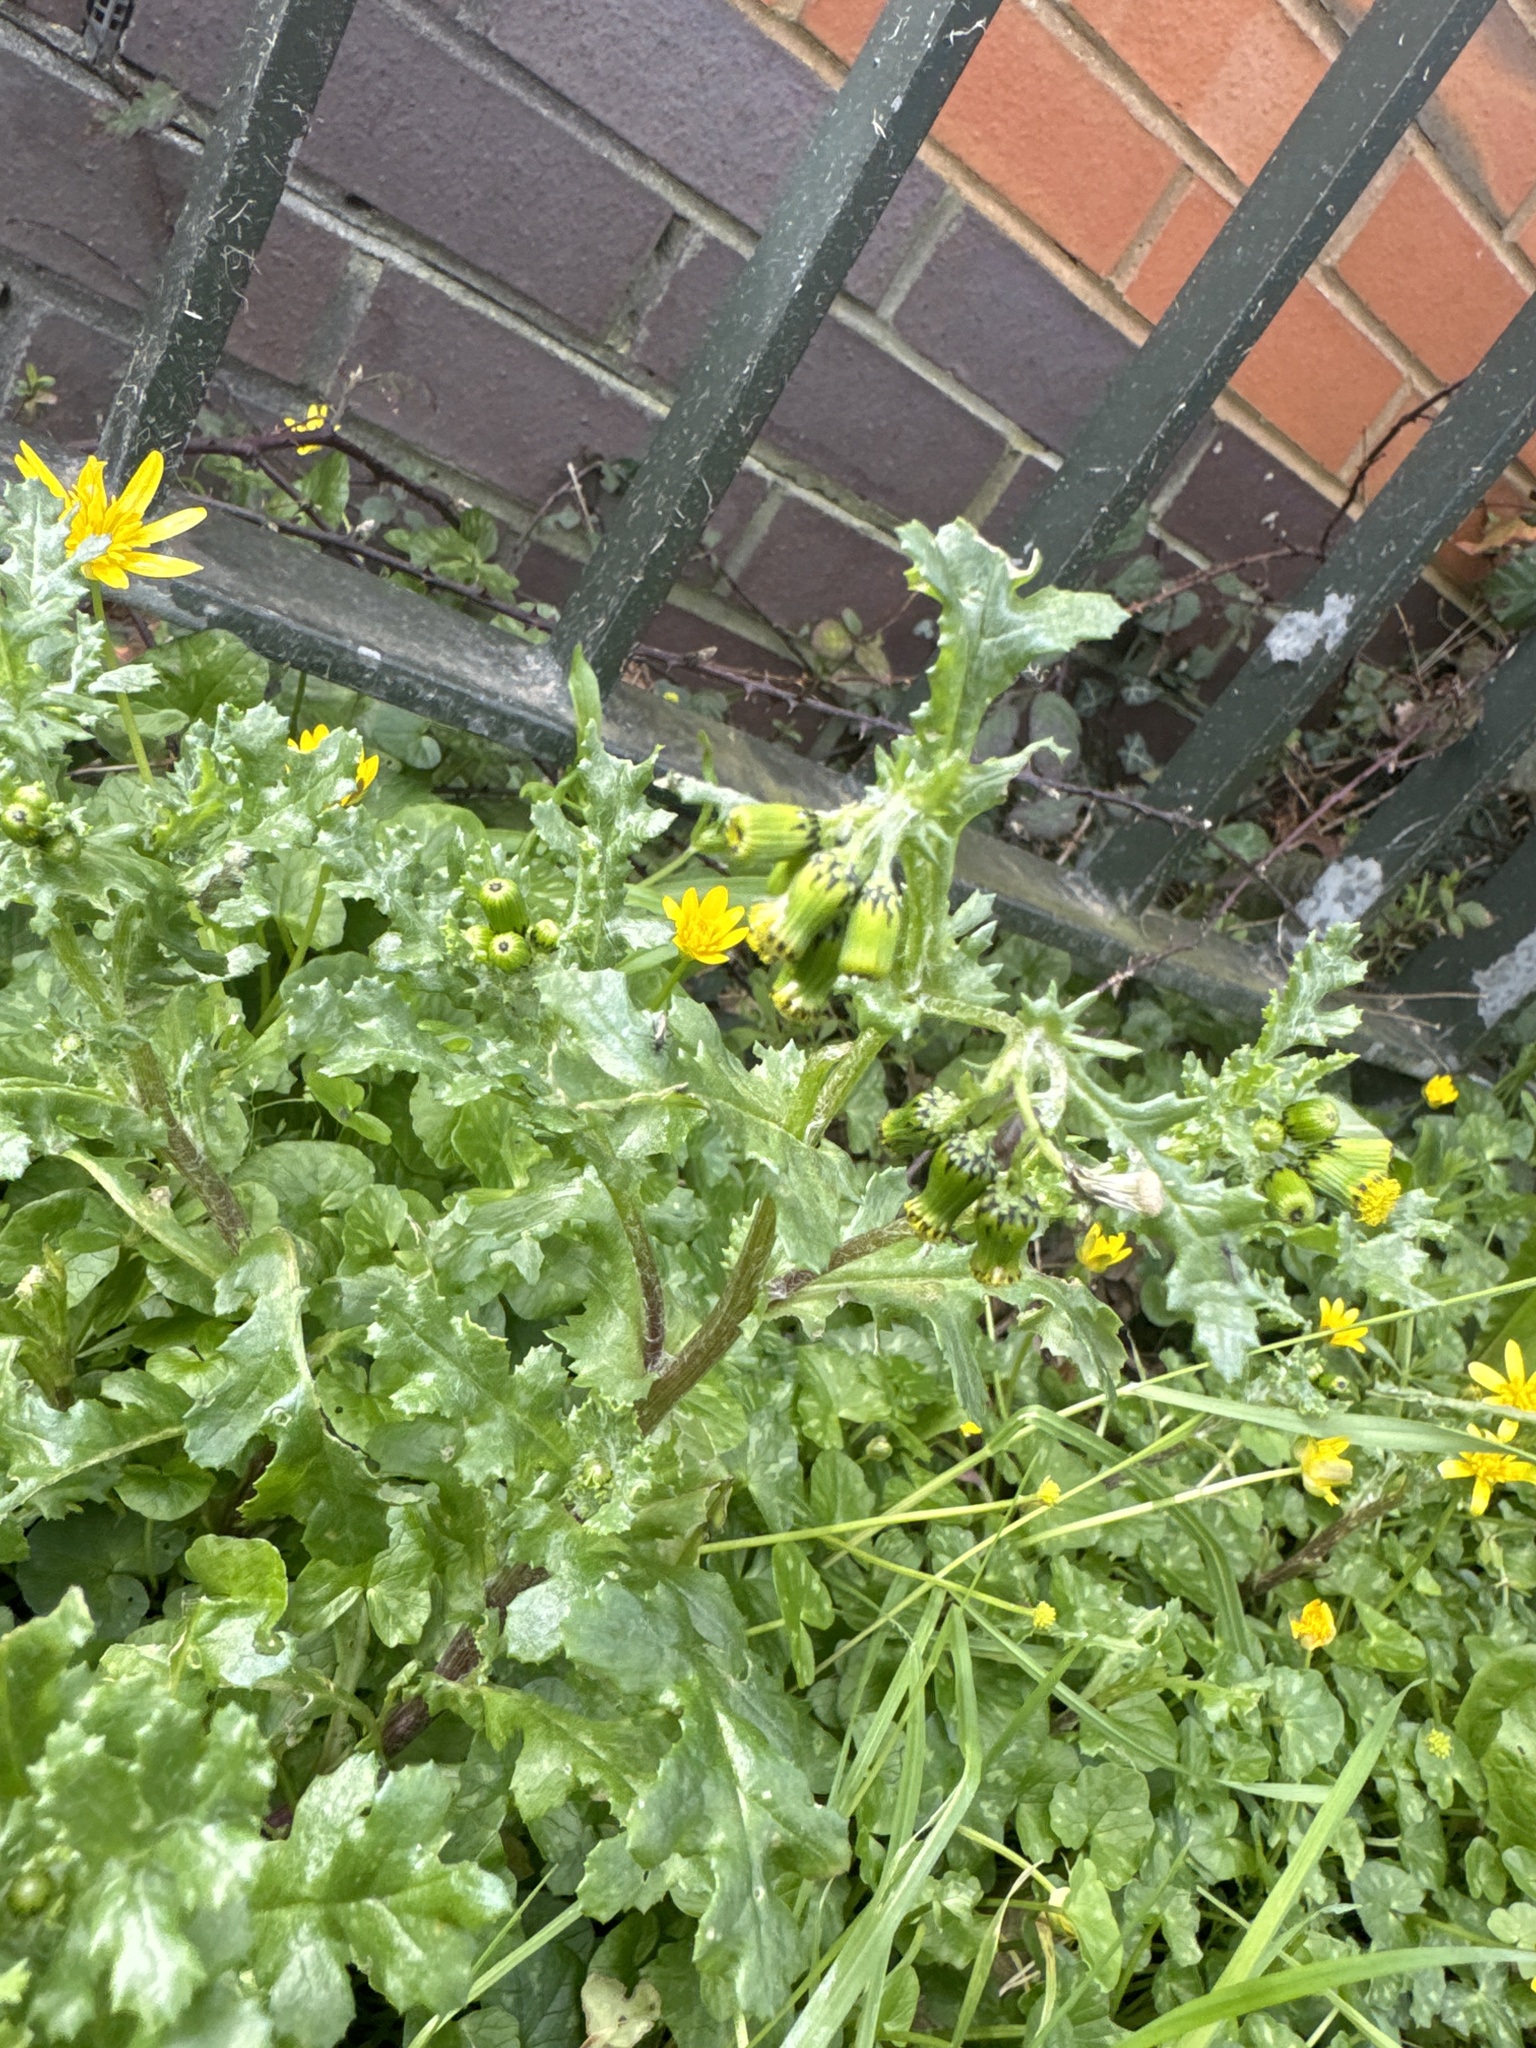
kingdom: Plantae
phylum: Tracheophyta
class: Magnoliopsida
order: Asterales
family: Asteraceae
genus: Senecio
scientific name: Senecio vulgaris
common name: Old-man-in-the-spring
